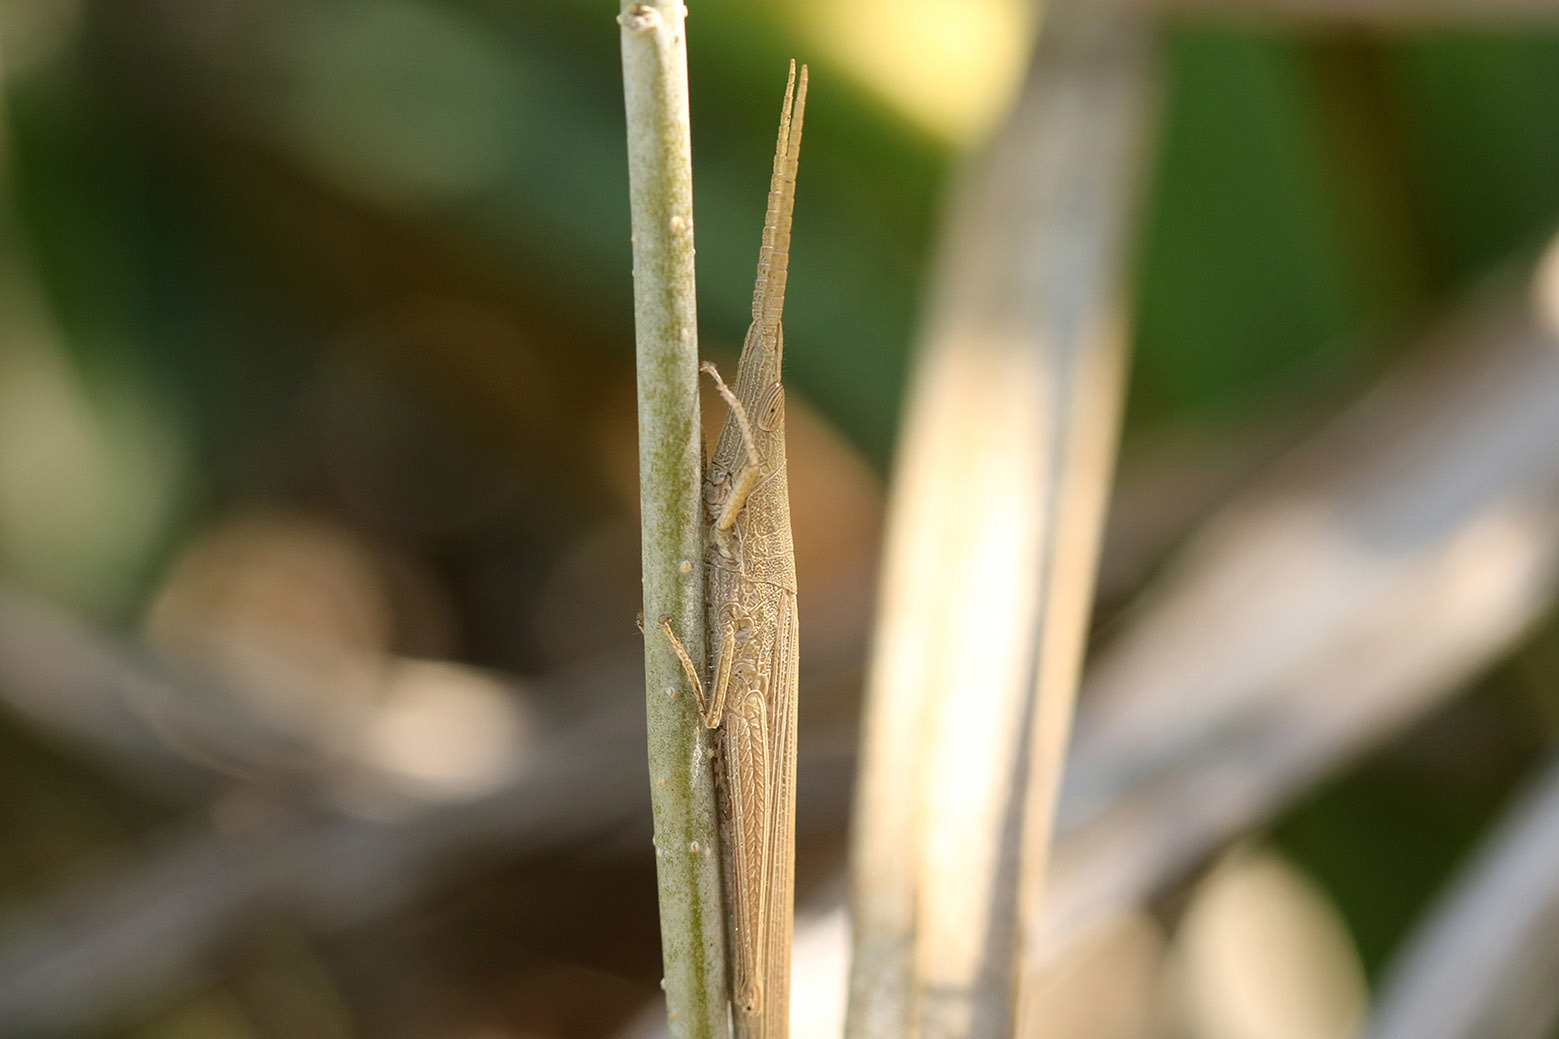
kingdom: Animalia
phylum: Arthropoda
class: Insecta
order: Orthoptera
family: Acrididae
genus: Haroldgrantia
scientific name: Haroldgrantia lignosa
